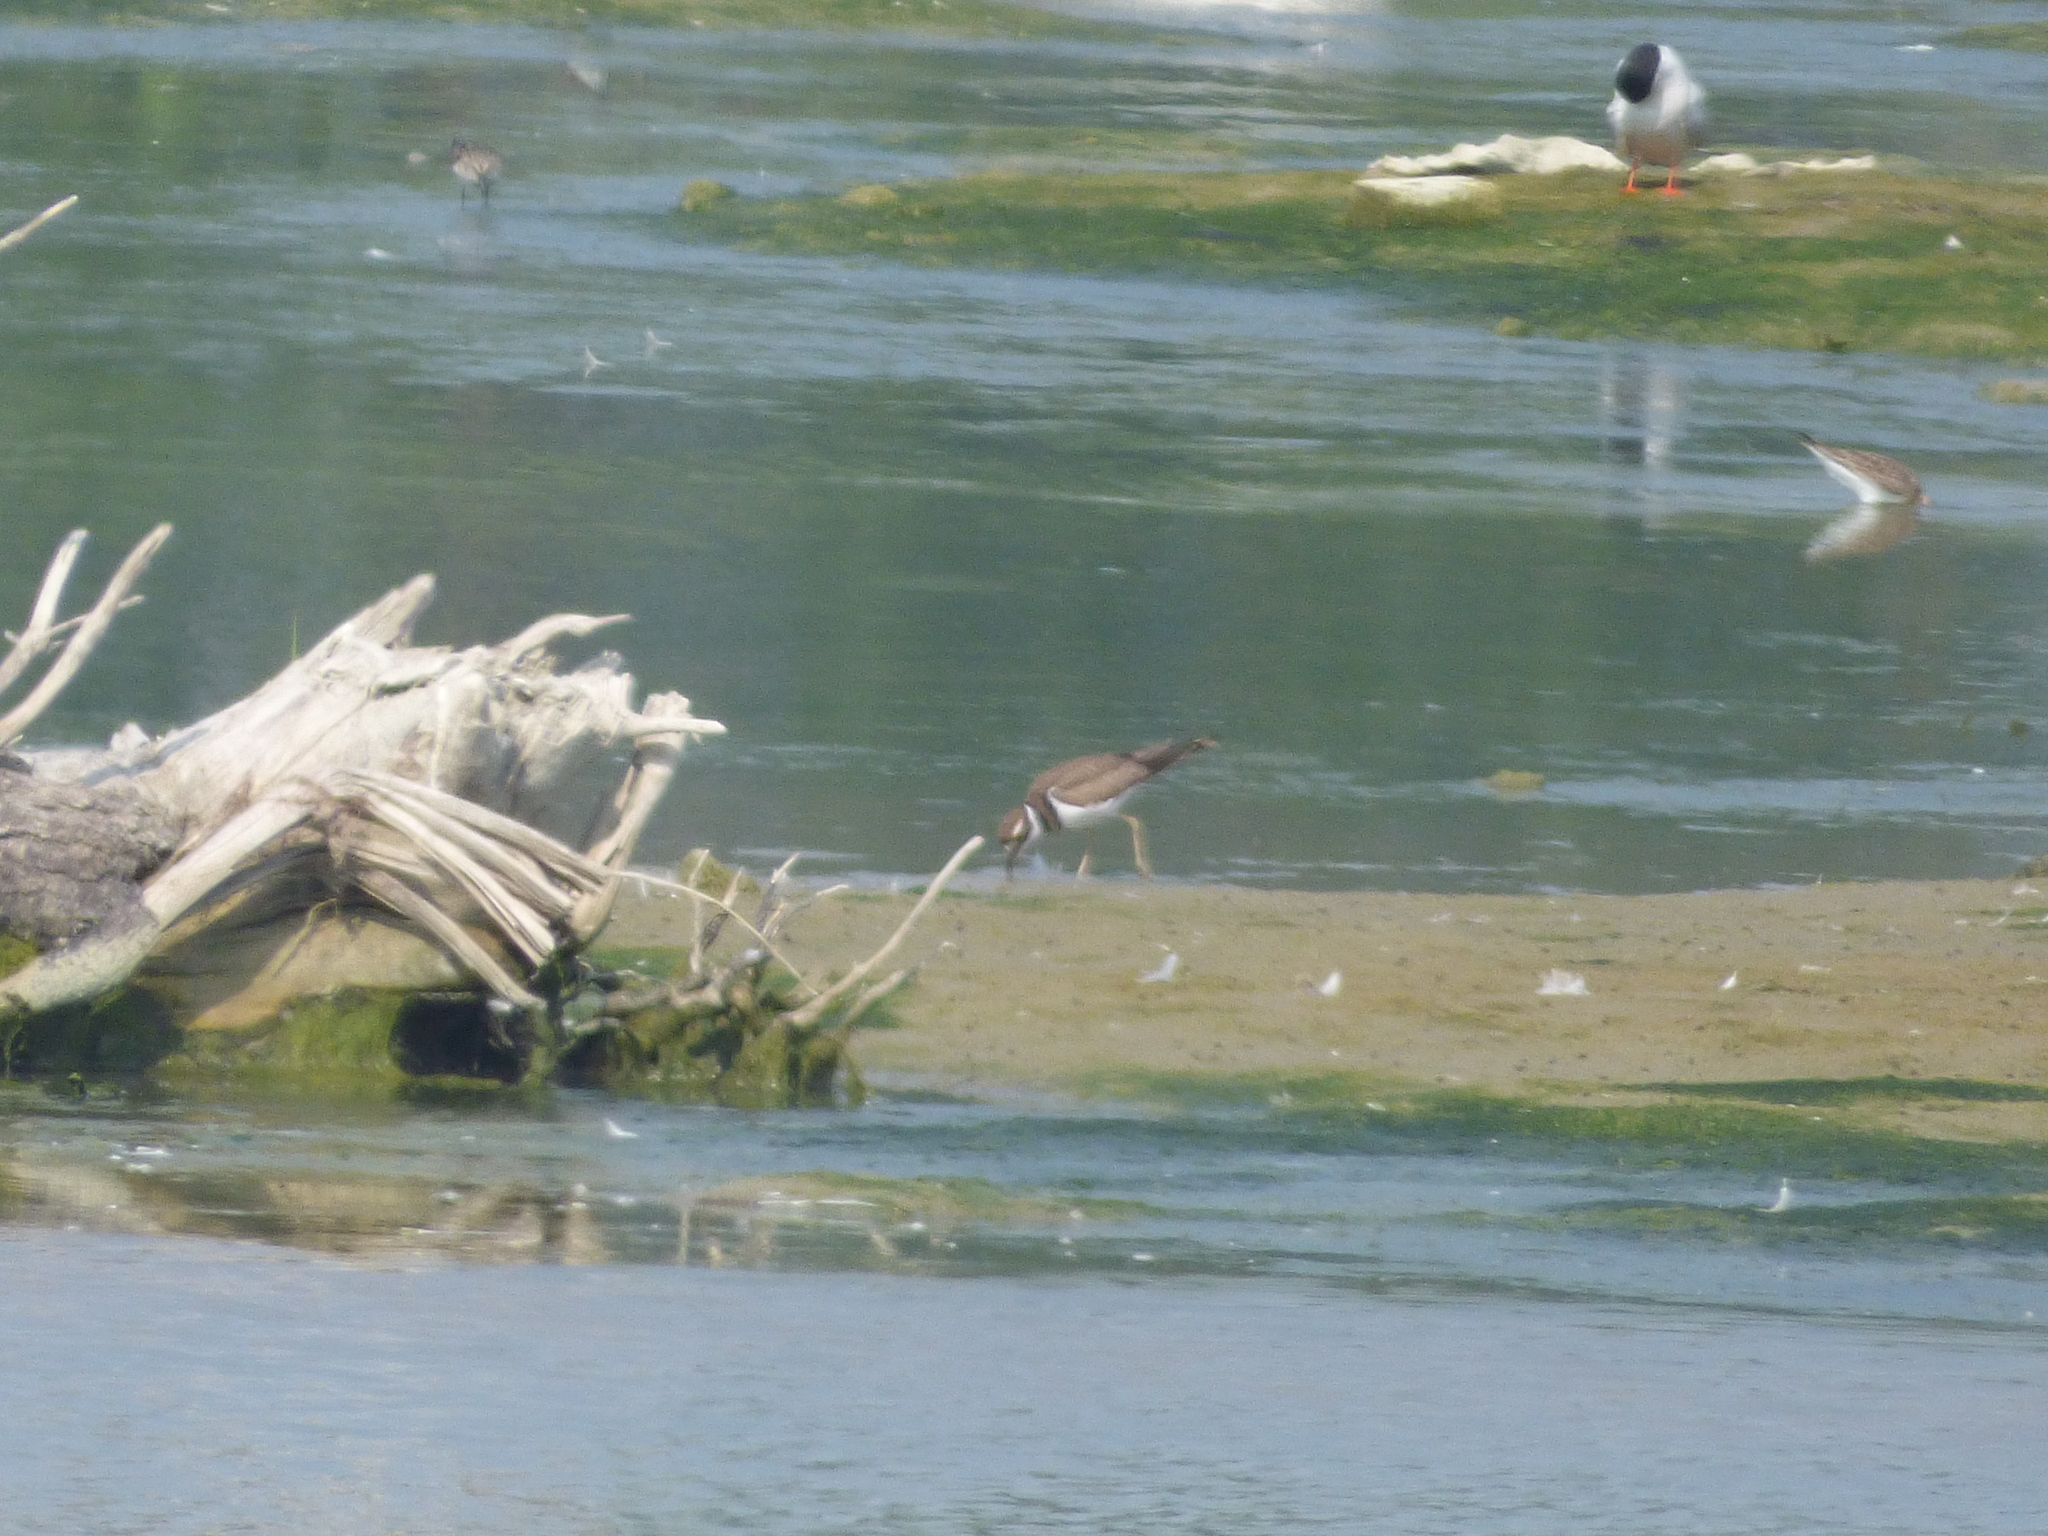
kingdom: Animalia
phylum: Chordata
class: Aves
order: Charadriiformes
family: Charadriidae
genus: Charadrius
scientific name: Charadrius vociferus
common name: Killdeer
